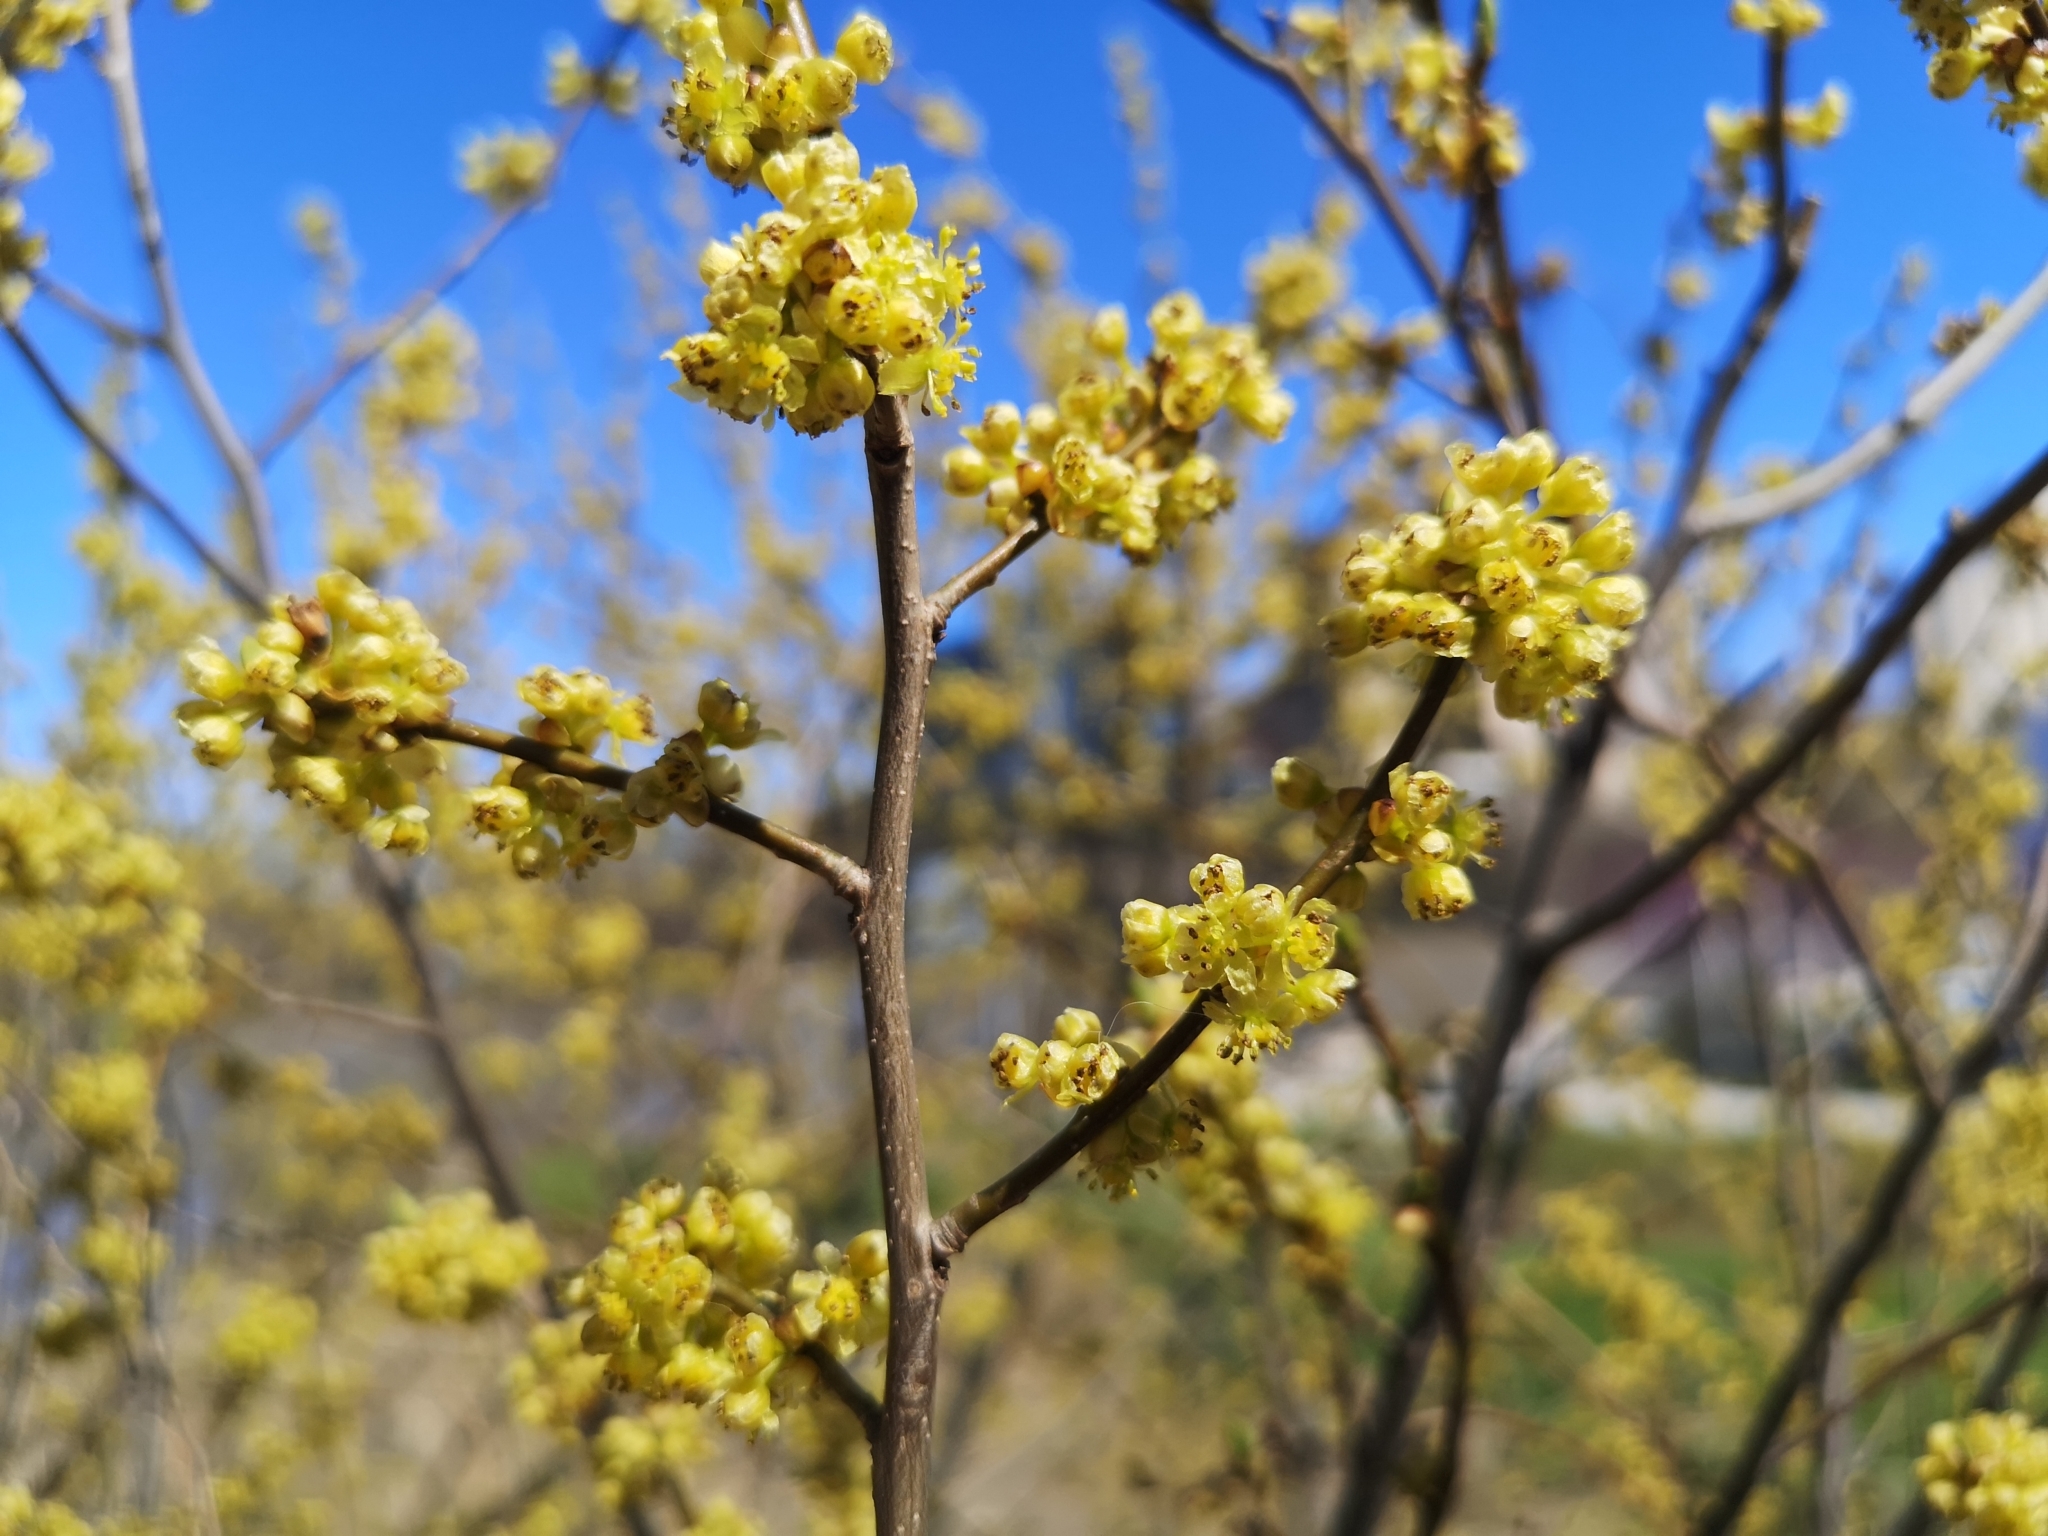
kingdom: Plantae
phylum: Tracheophyta
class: Magnoliopsida
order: Laurales
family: Lauraceae
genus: Lindera
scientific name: Lindera benzoin
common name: Spicebush
